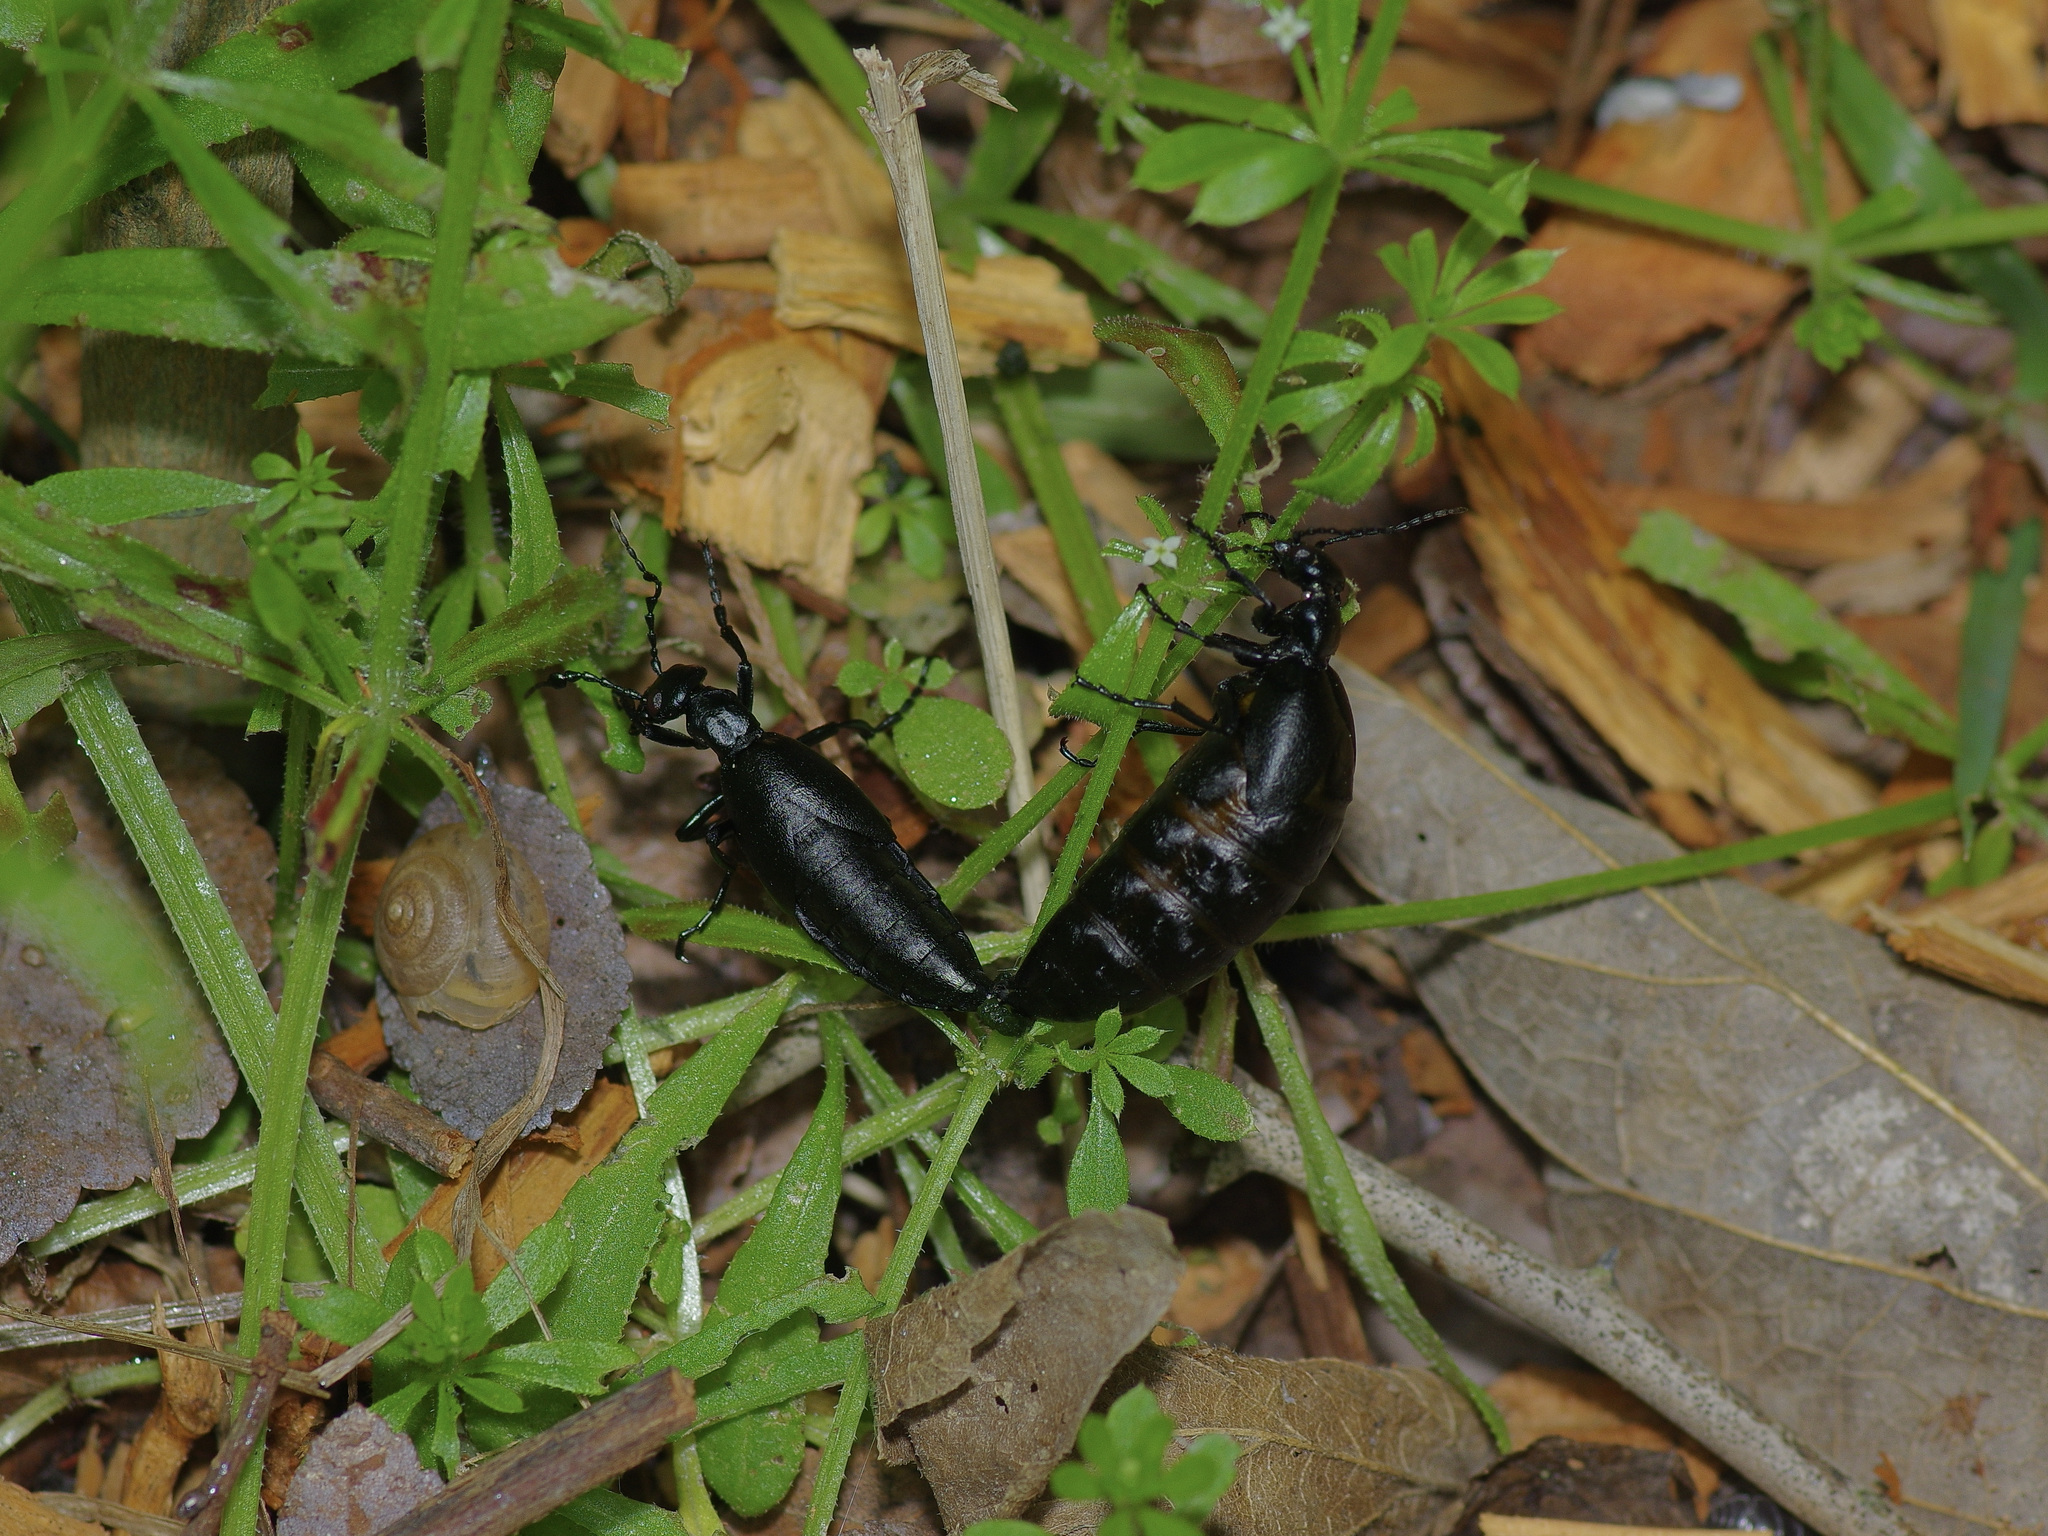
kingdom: Animalia
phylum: Arthropoda
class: Insecta
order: Coleoptera
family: Meloidae
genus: Meloe
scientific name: Meloe americanus
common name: Buttercup oil beetle
